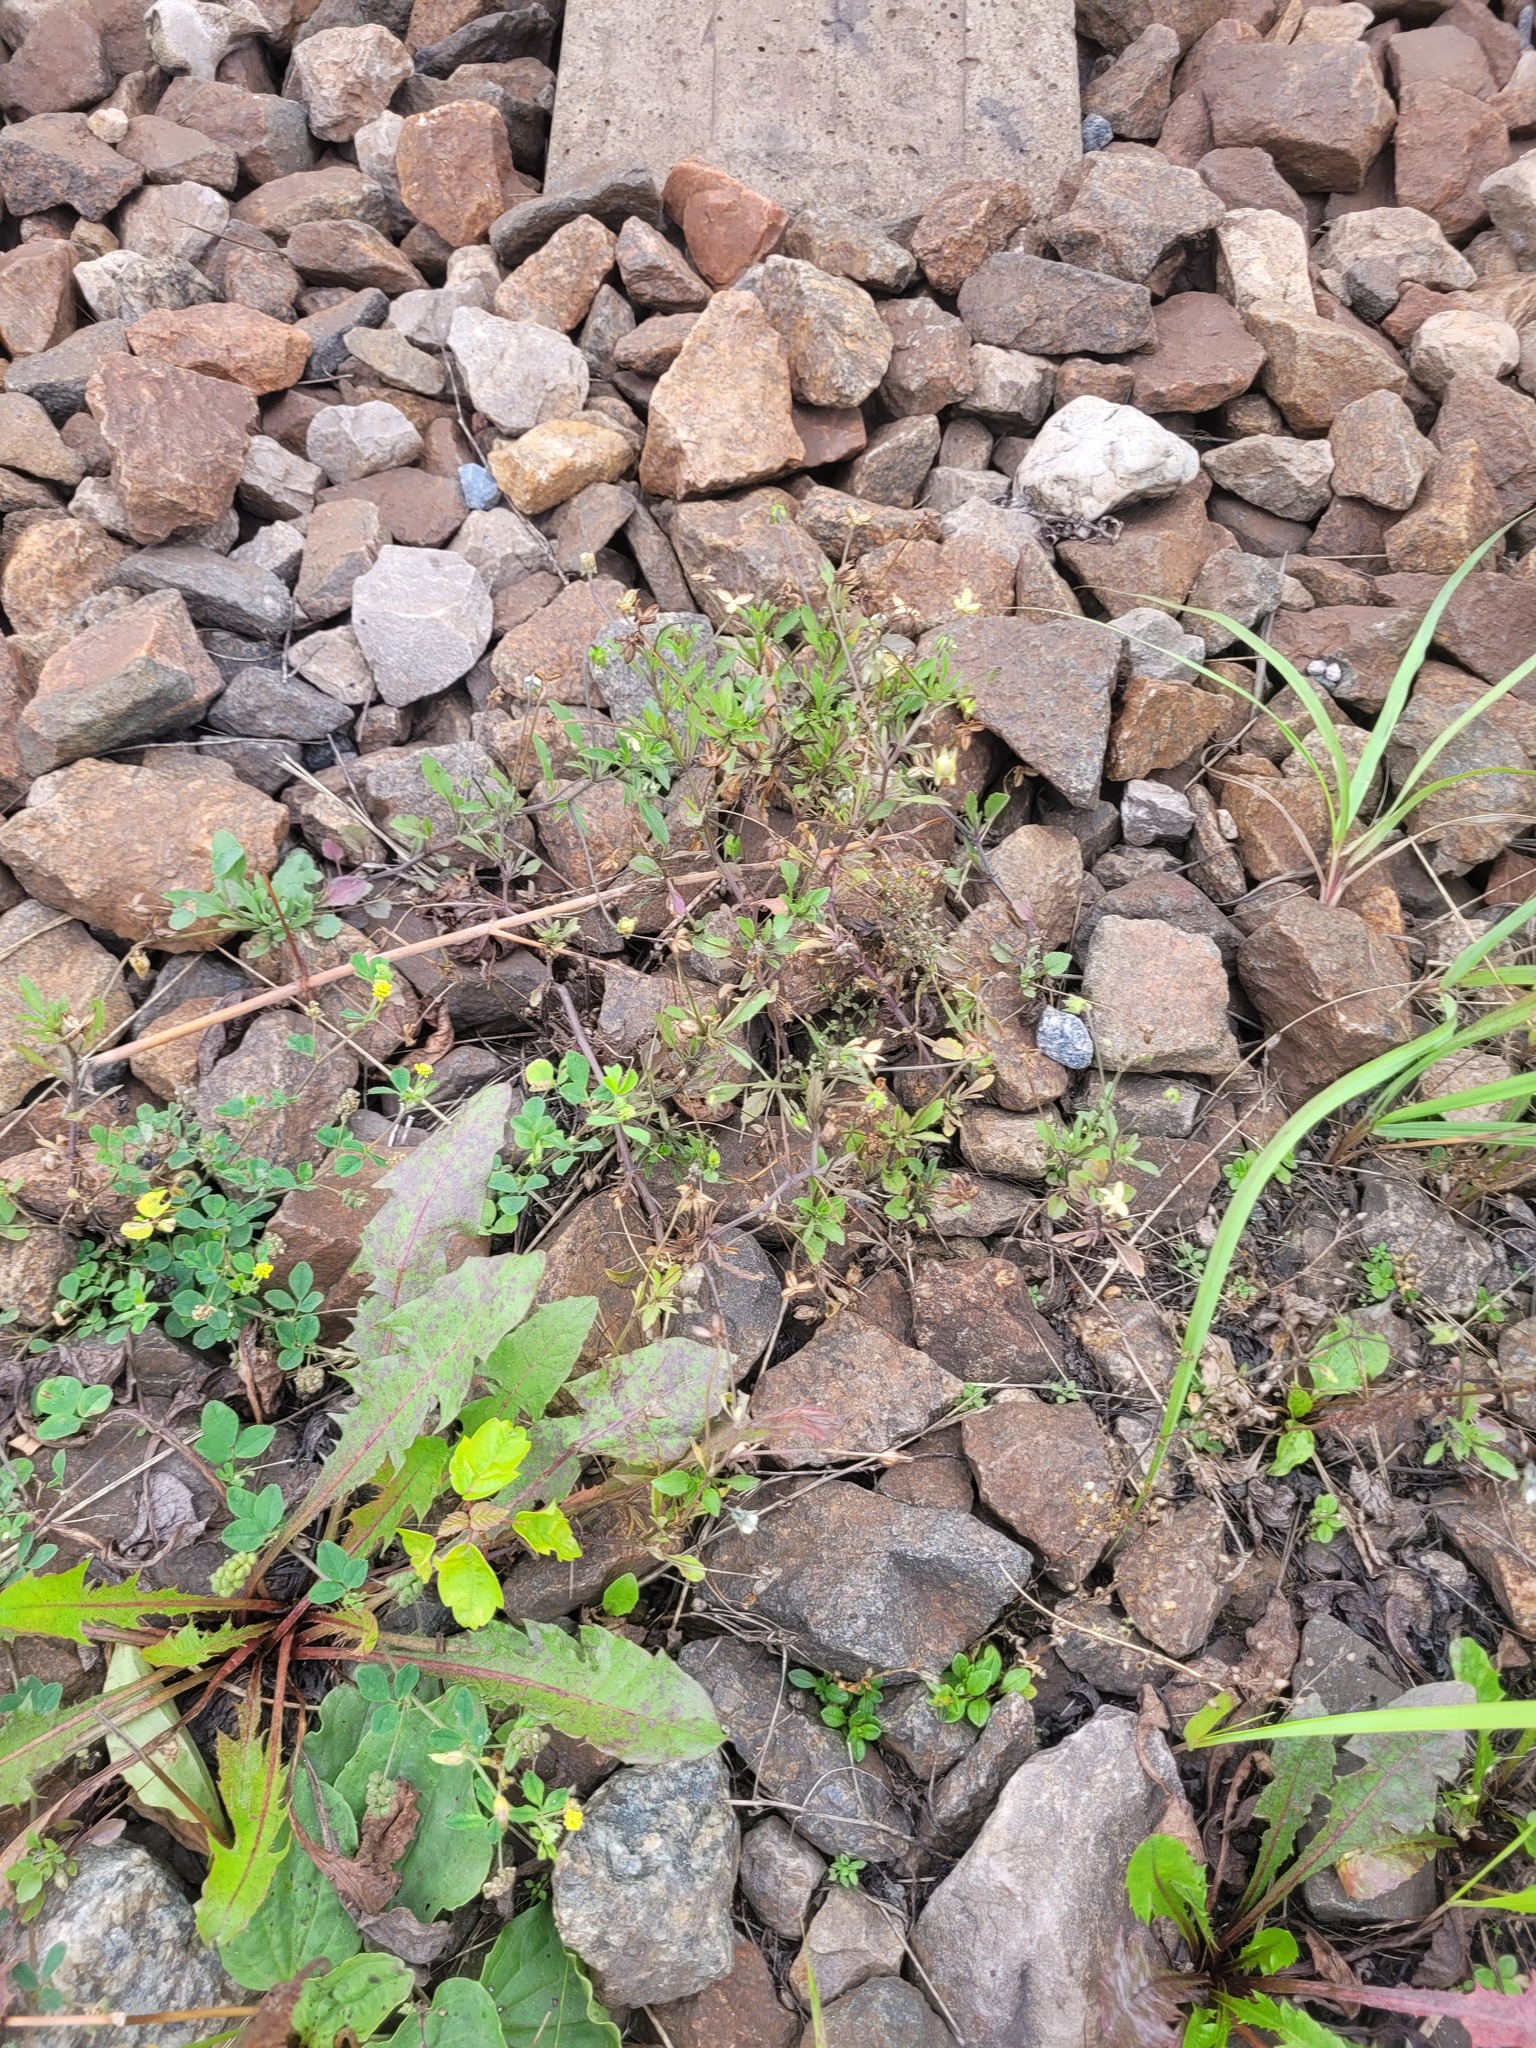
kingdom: Plantae
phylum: Tracheophyta
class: Magnoliopsida
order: Malpighiales
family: Violaceae
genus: Viola
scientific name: Viola arvensis
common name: Field pansy
